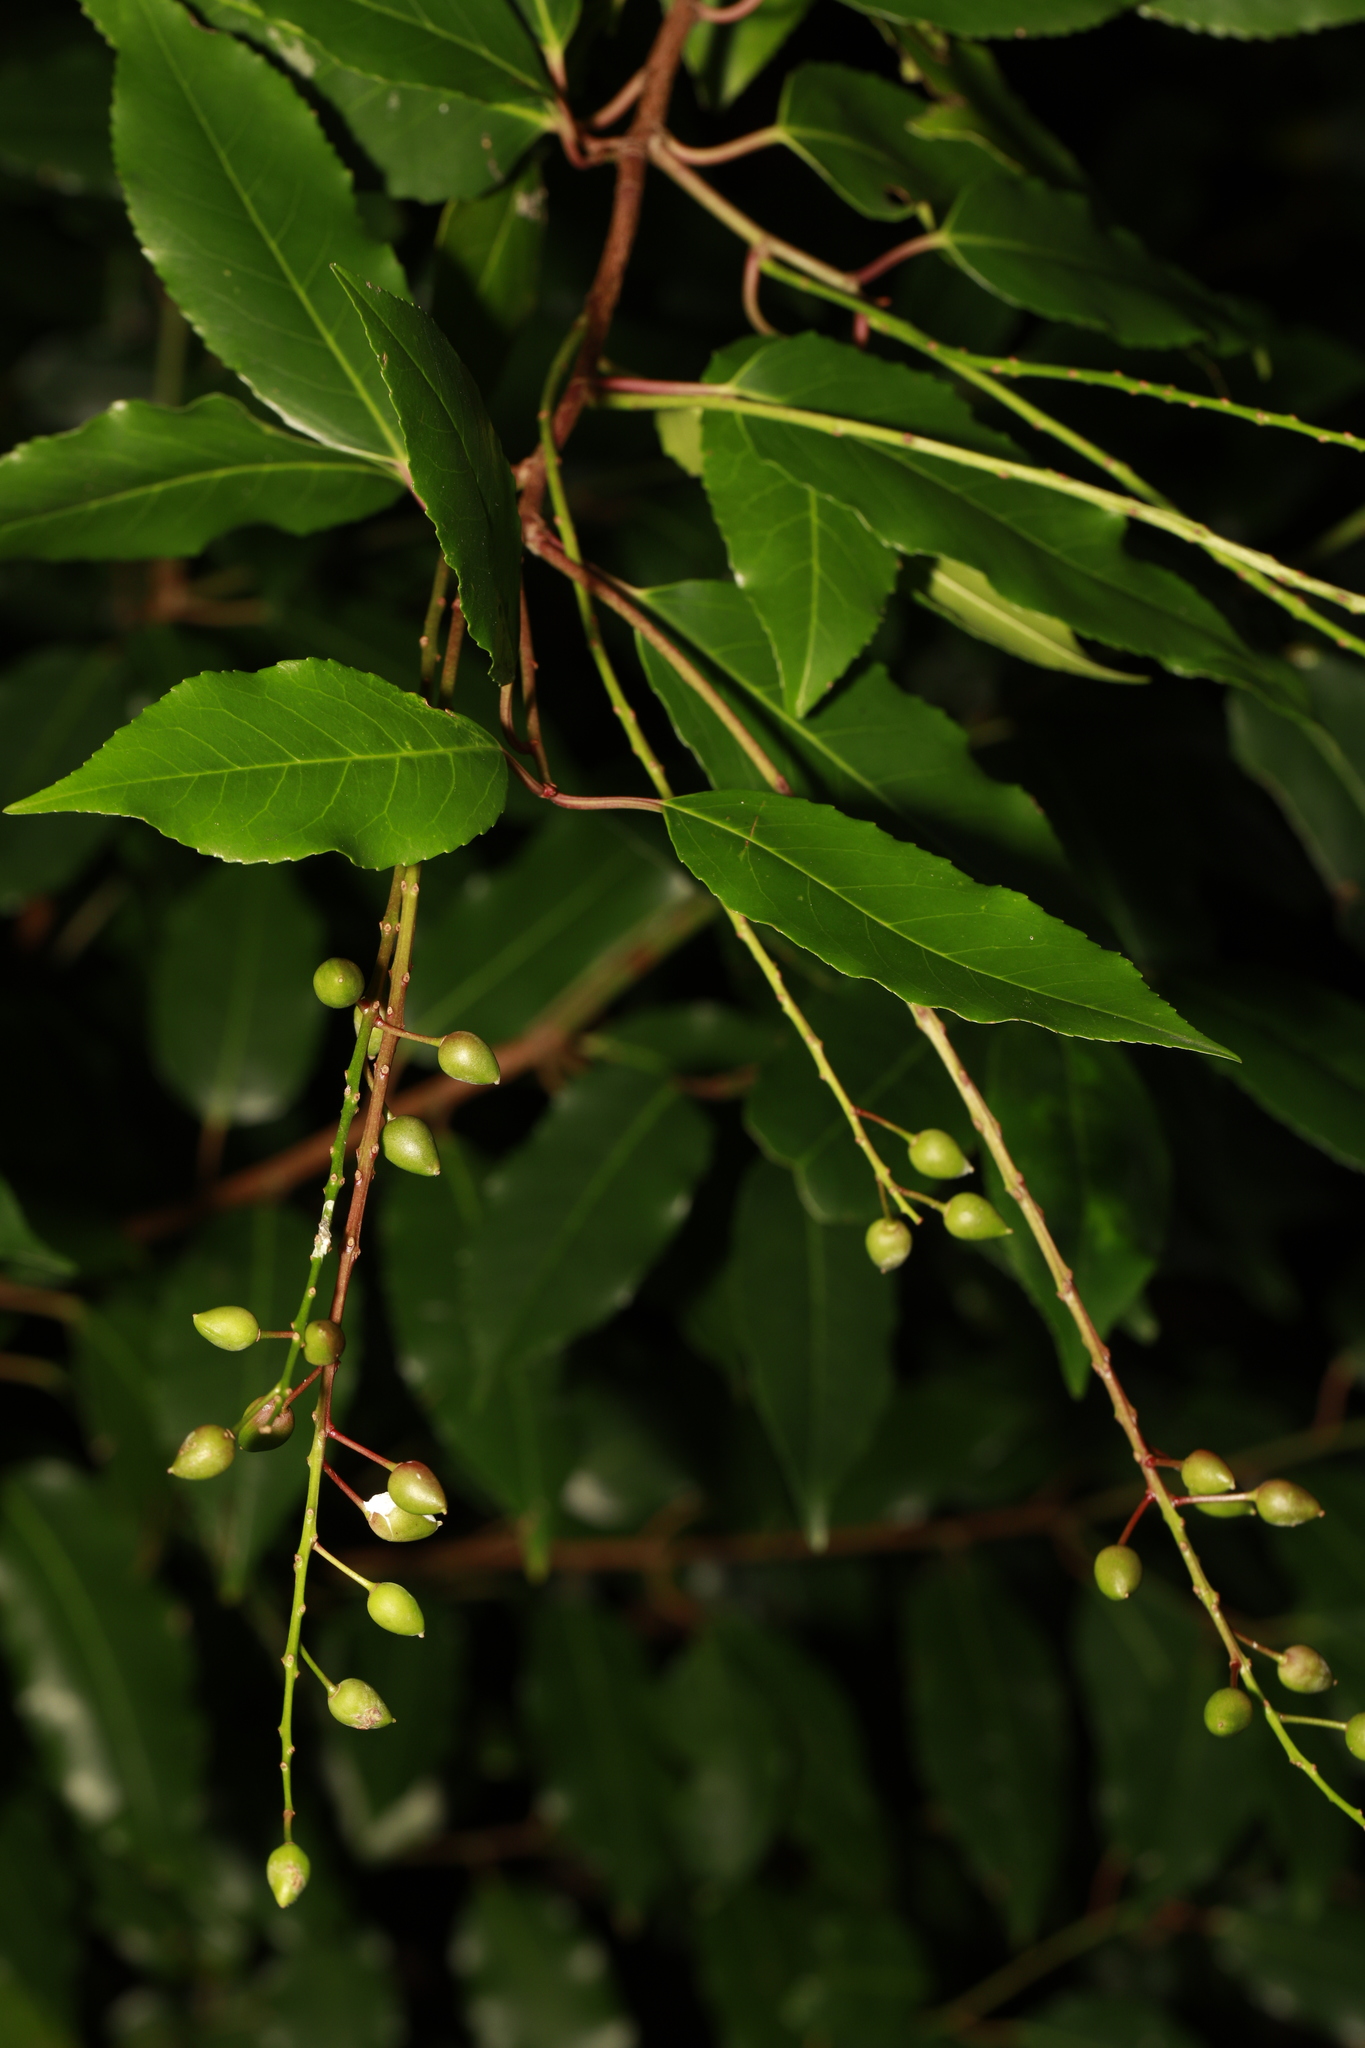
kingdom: Plantae
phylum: Tracheophyta
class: Magnoliopsida
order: Rosales
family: Rosaceae
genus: Prunus
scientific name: Prunus lusitanica
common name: Portugal laurel
